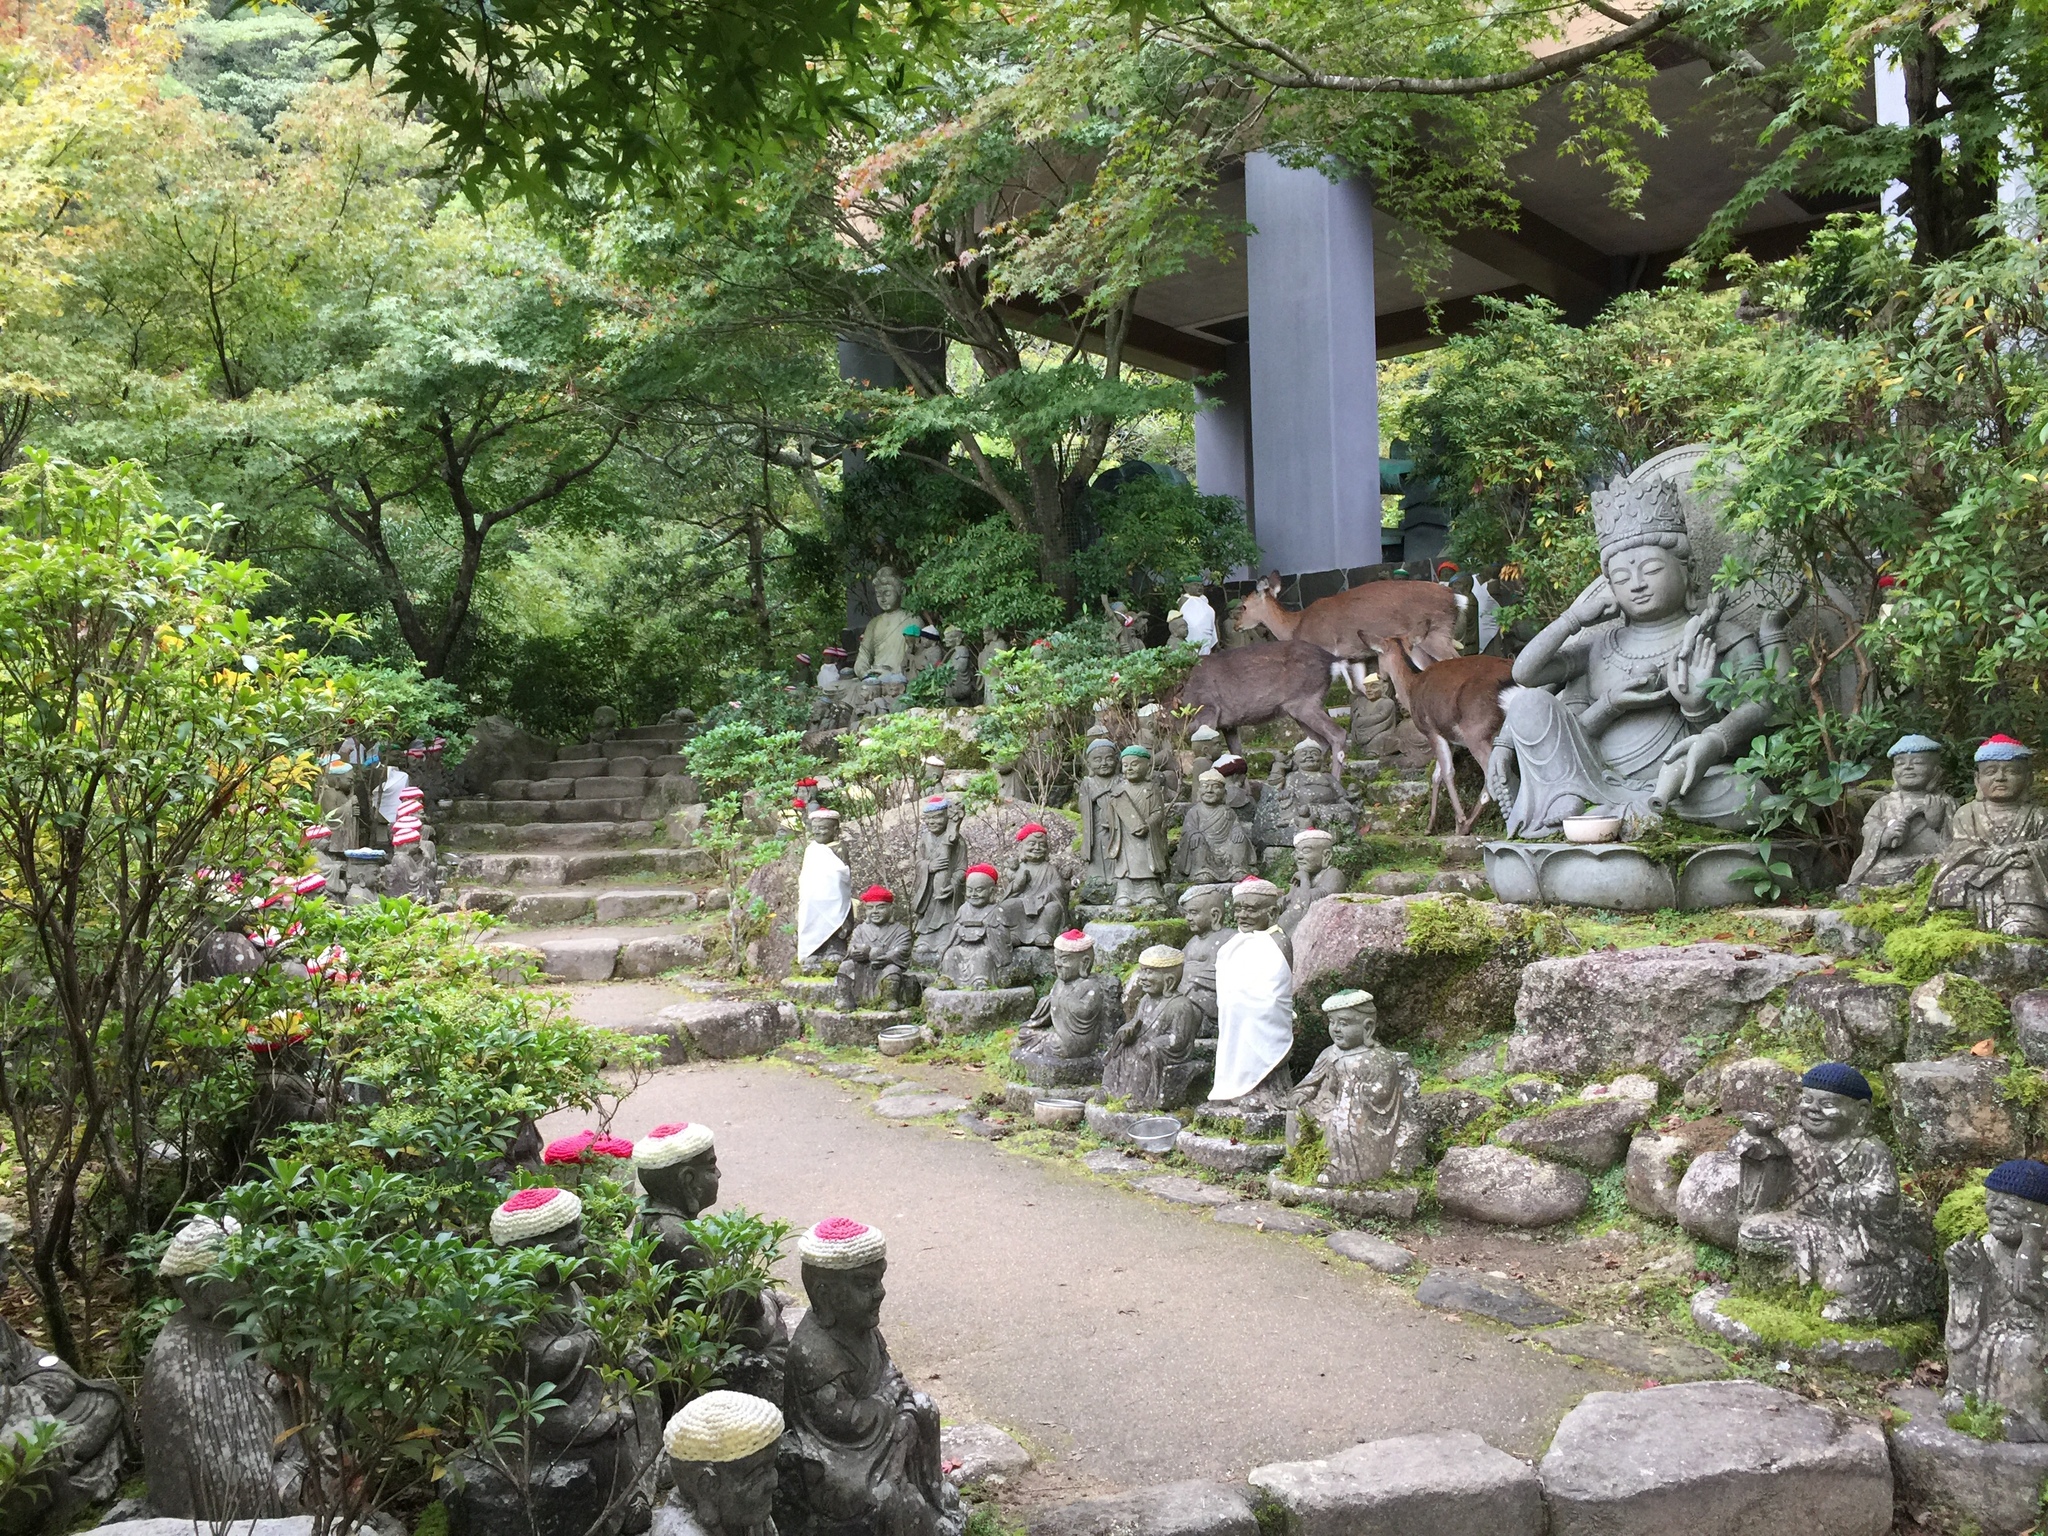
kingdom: Animalia
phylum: Chordata
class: Mammalia
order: Artiodactyla
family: Cervidae
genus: Cervus
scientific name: Cervus nippon
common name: Sika deer
